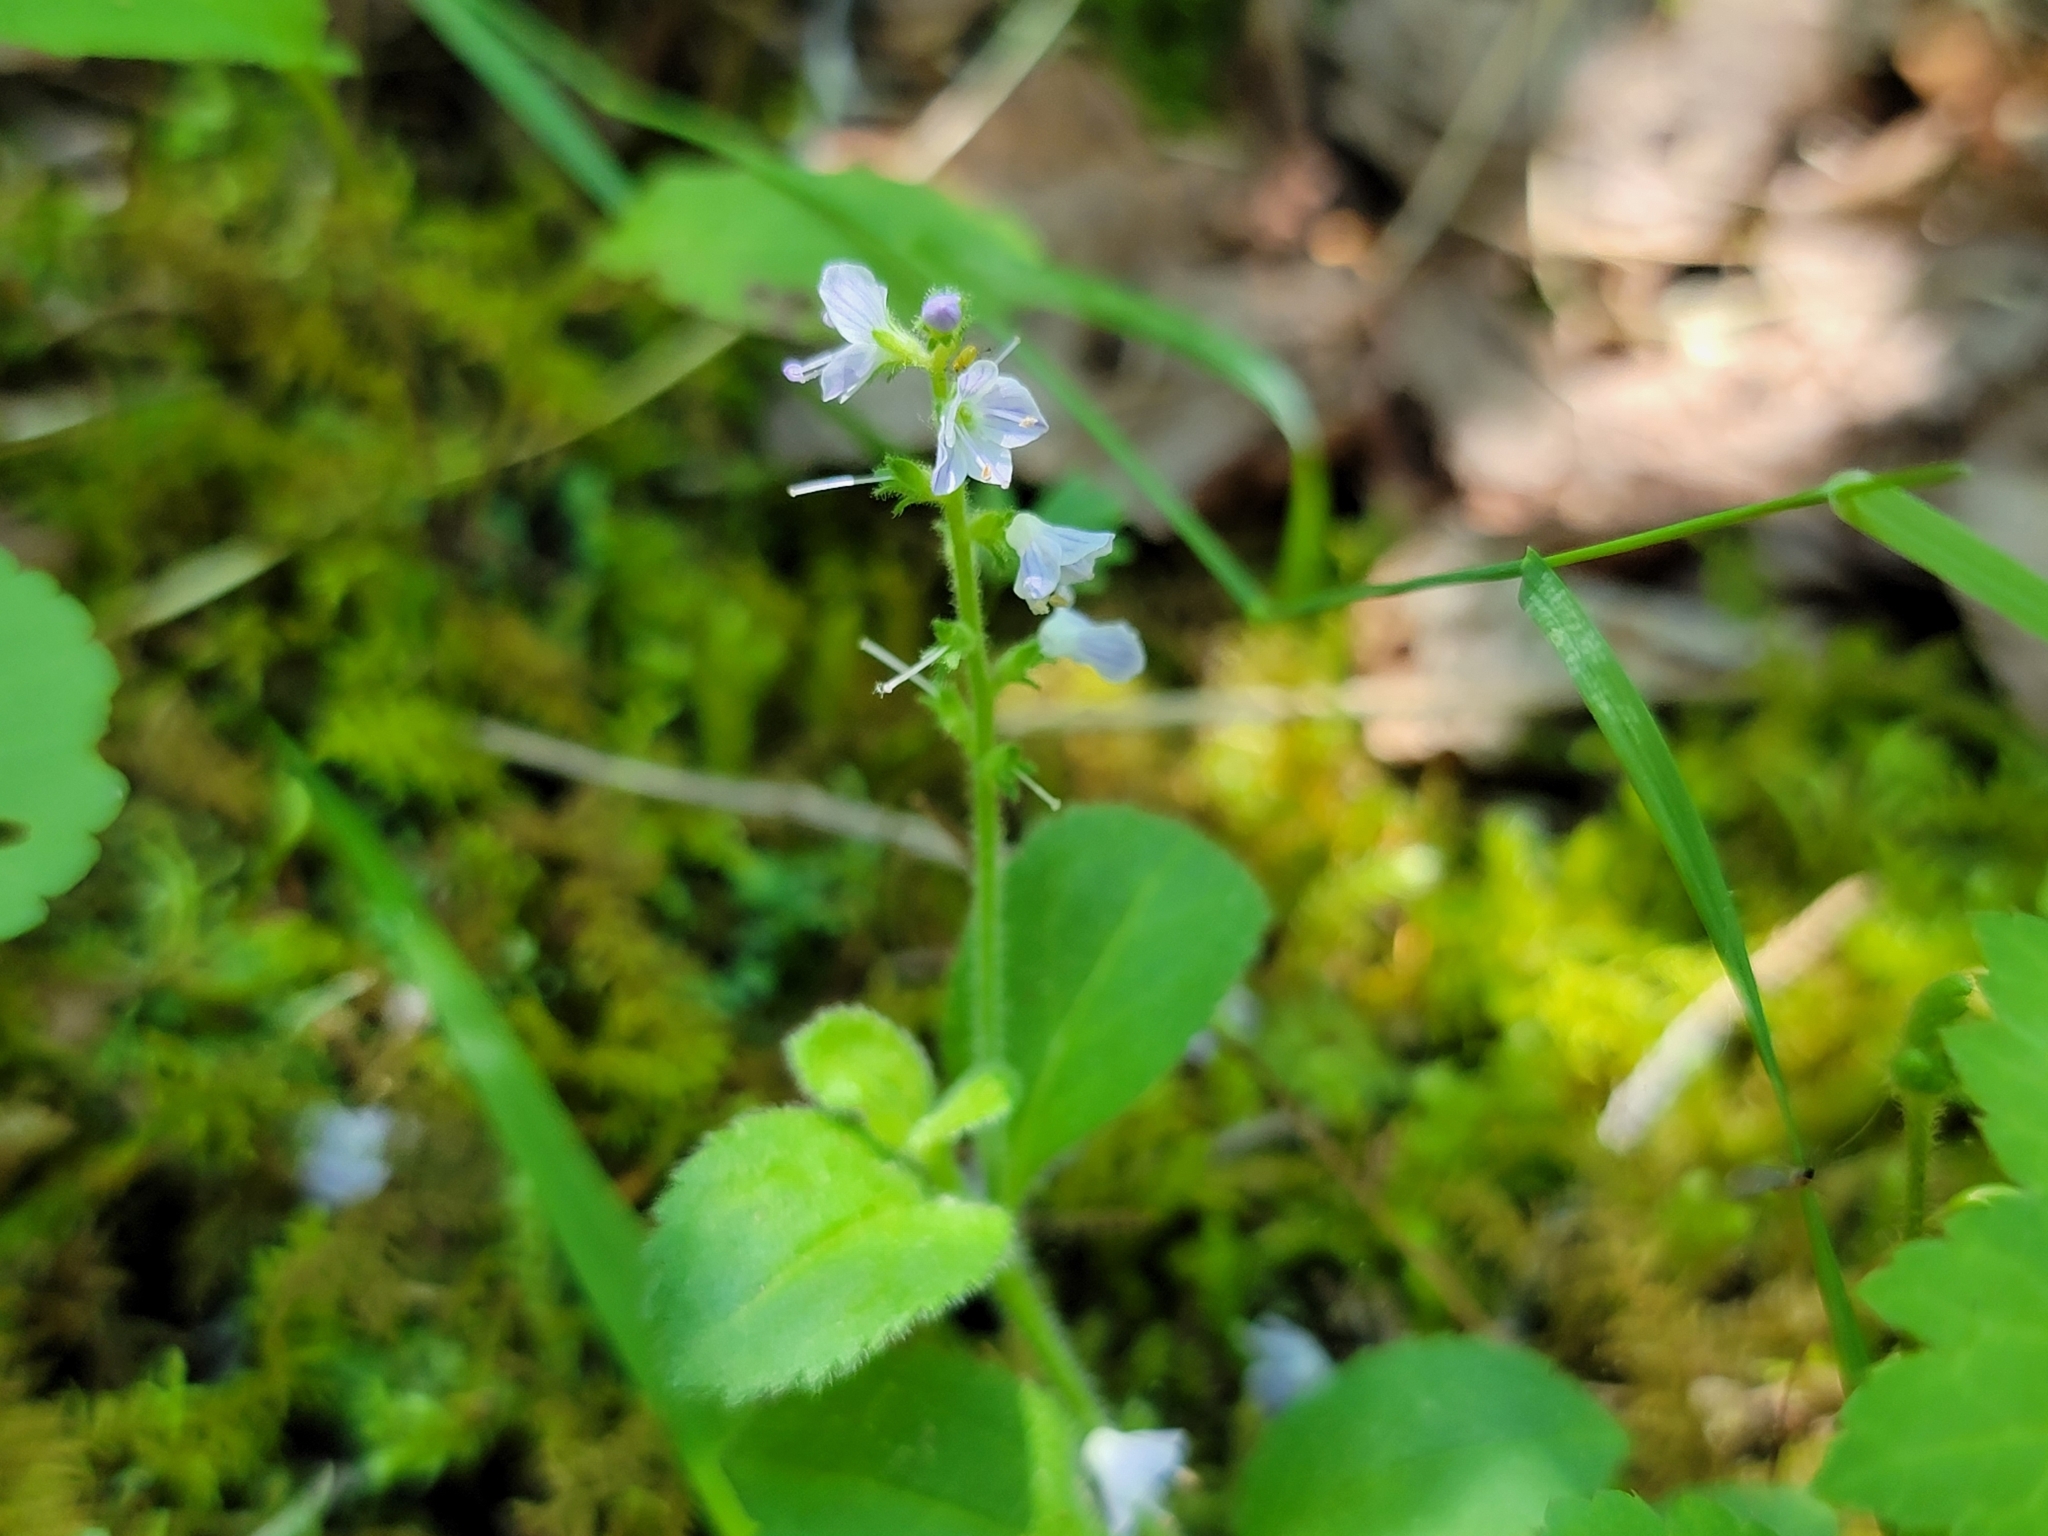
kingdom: Plantae
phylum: Tracheophyta
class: Magnoliopsida
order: Lamiales
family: Plantaginaceae
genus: Veronica
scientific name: Veronica officinalis
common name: Common speedwell
